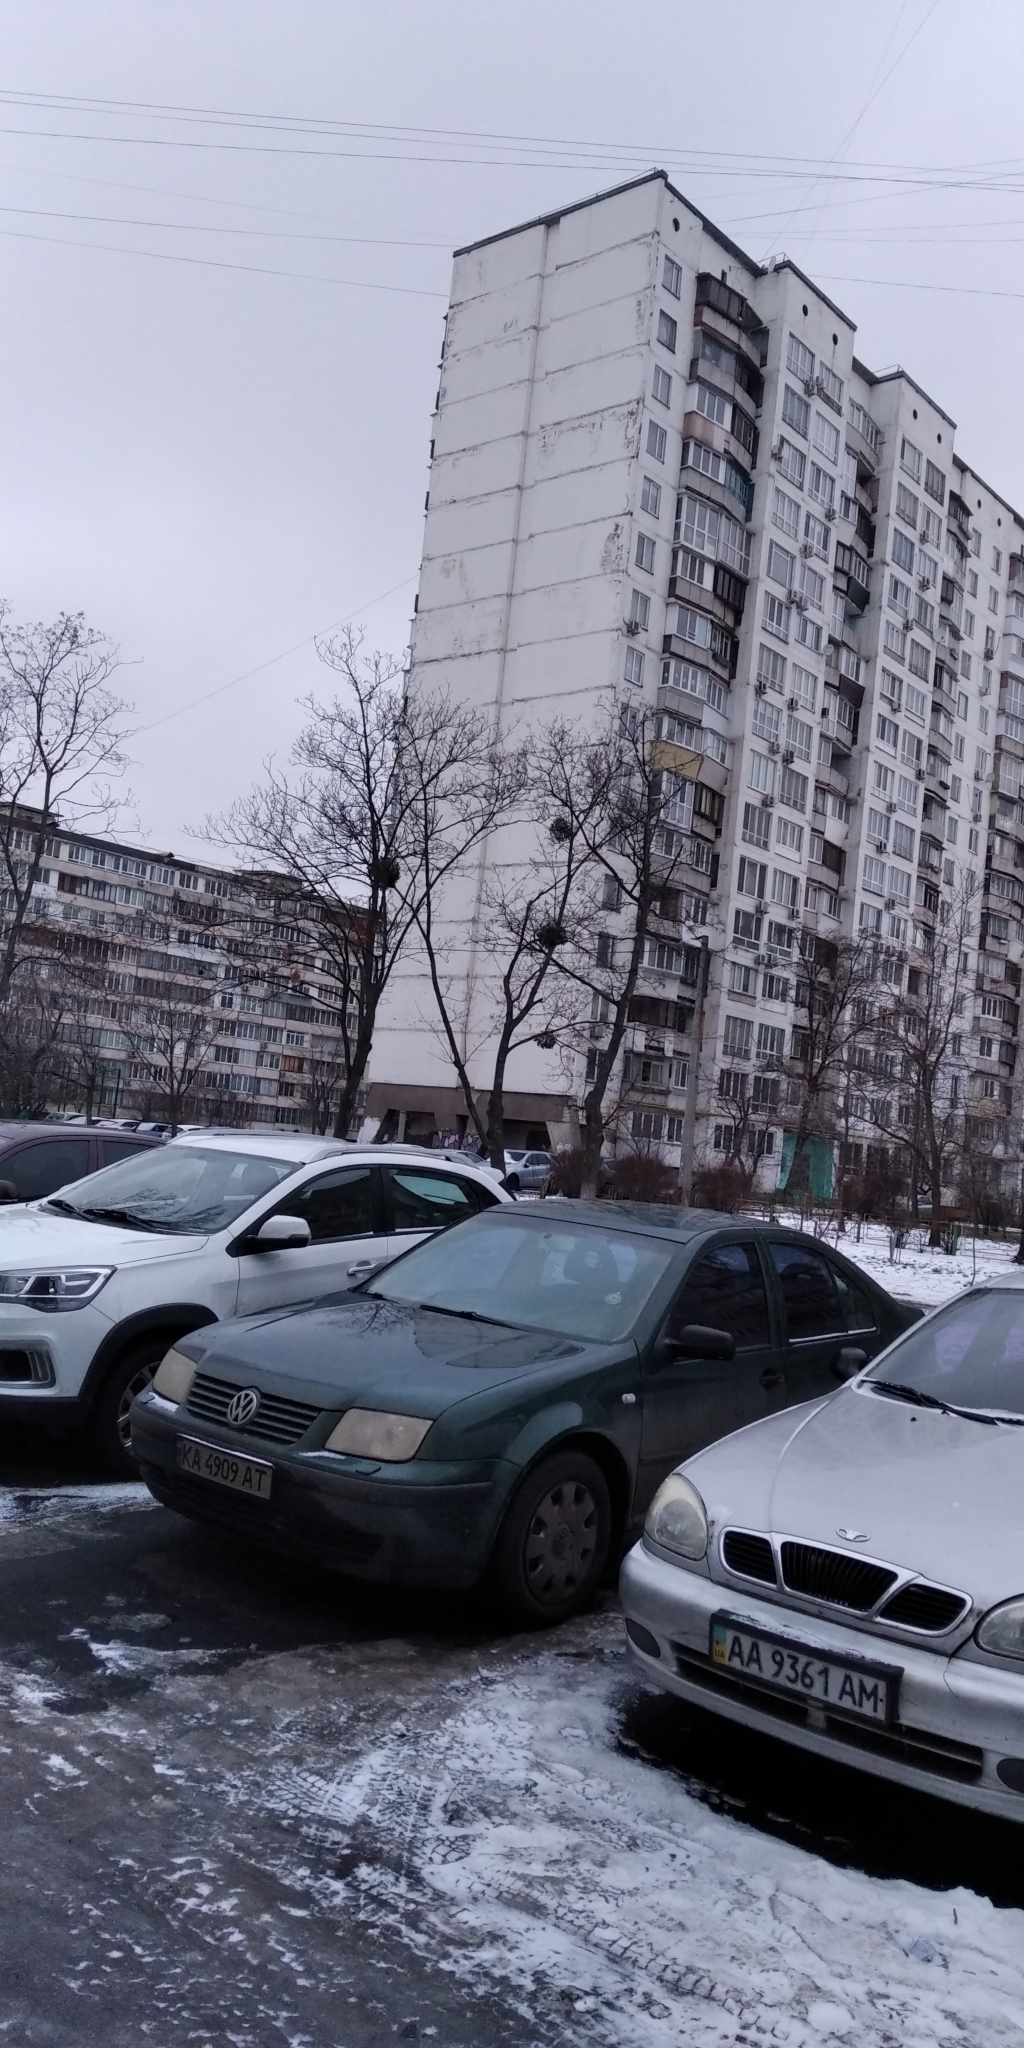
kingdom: Plantae
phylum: Tracheophyta
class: Magnoliopsida
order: Santalales
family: Viscaceae
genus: Viscum
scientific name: Viscum album
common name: Mistletoe
